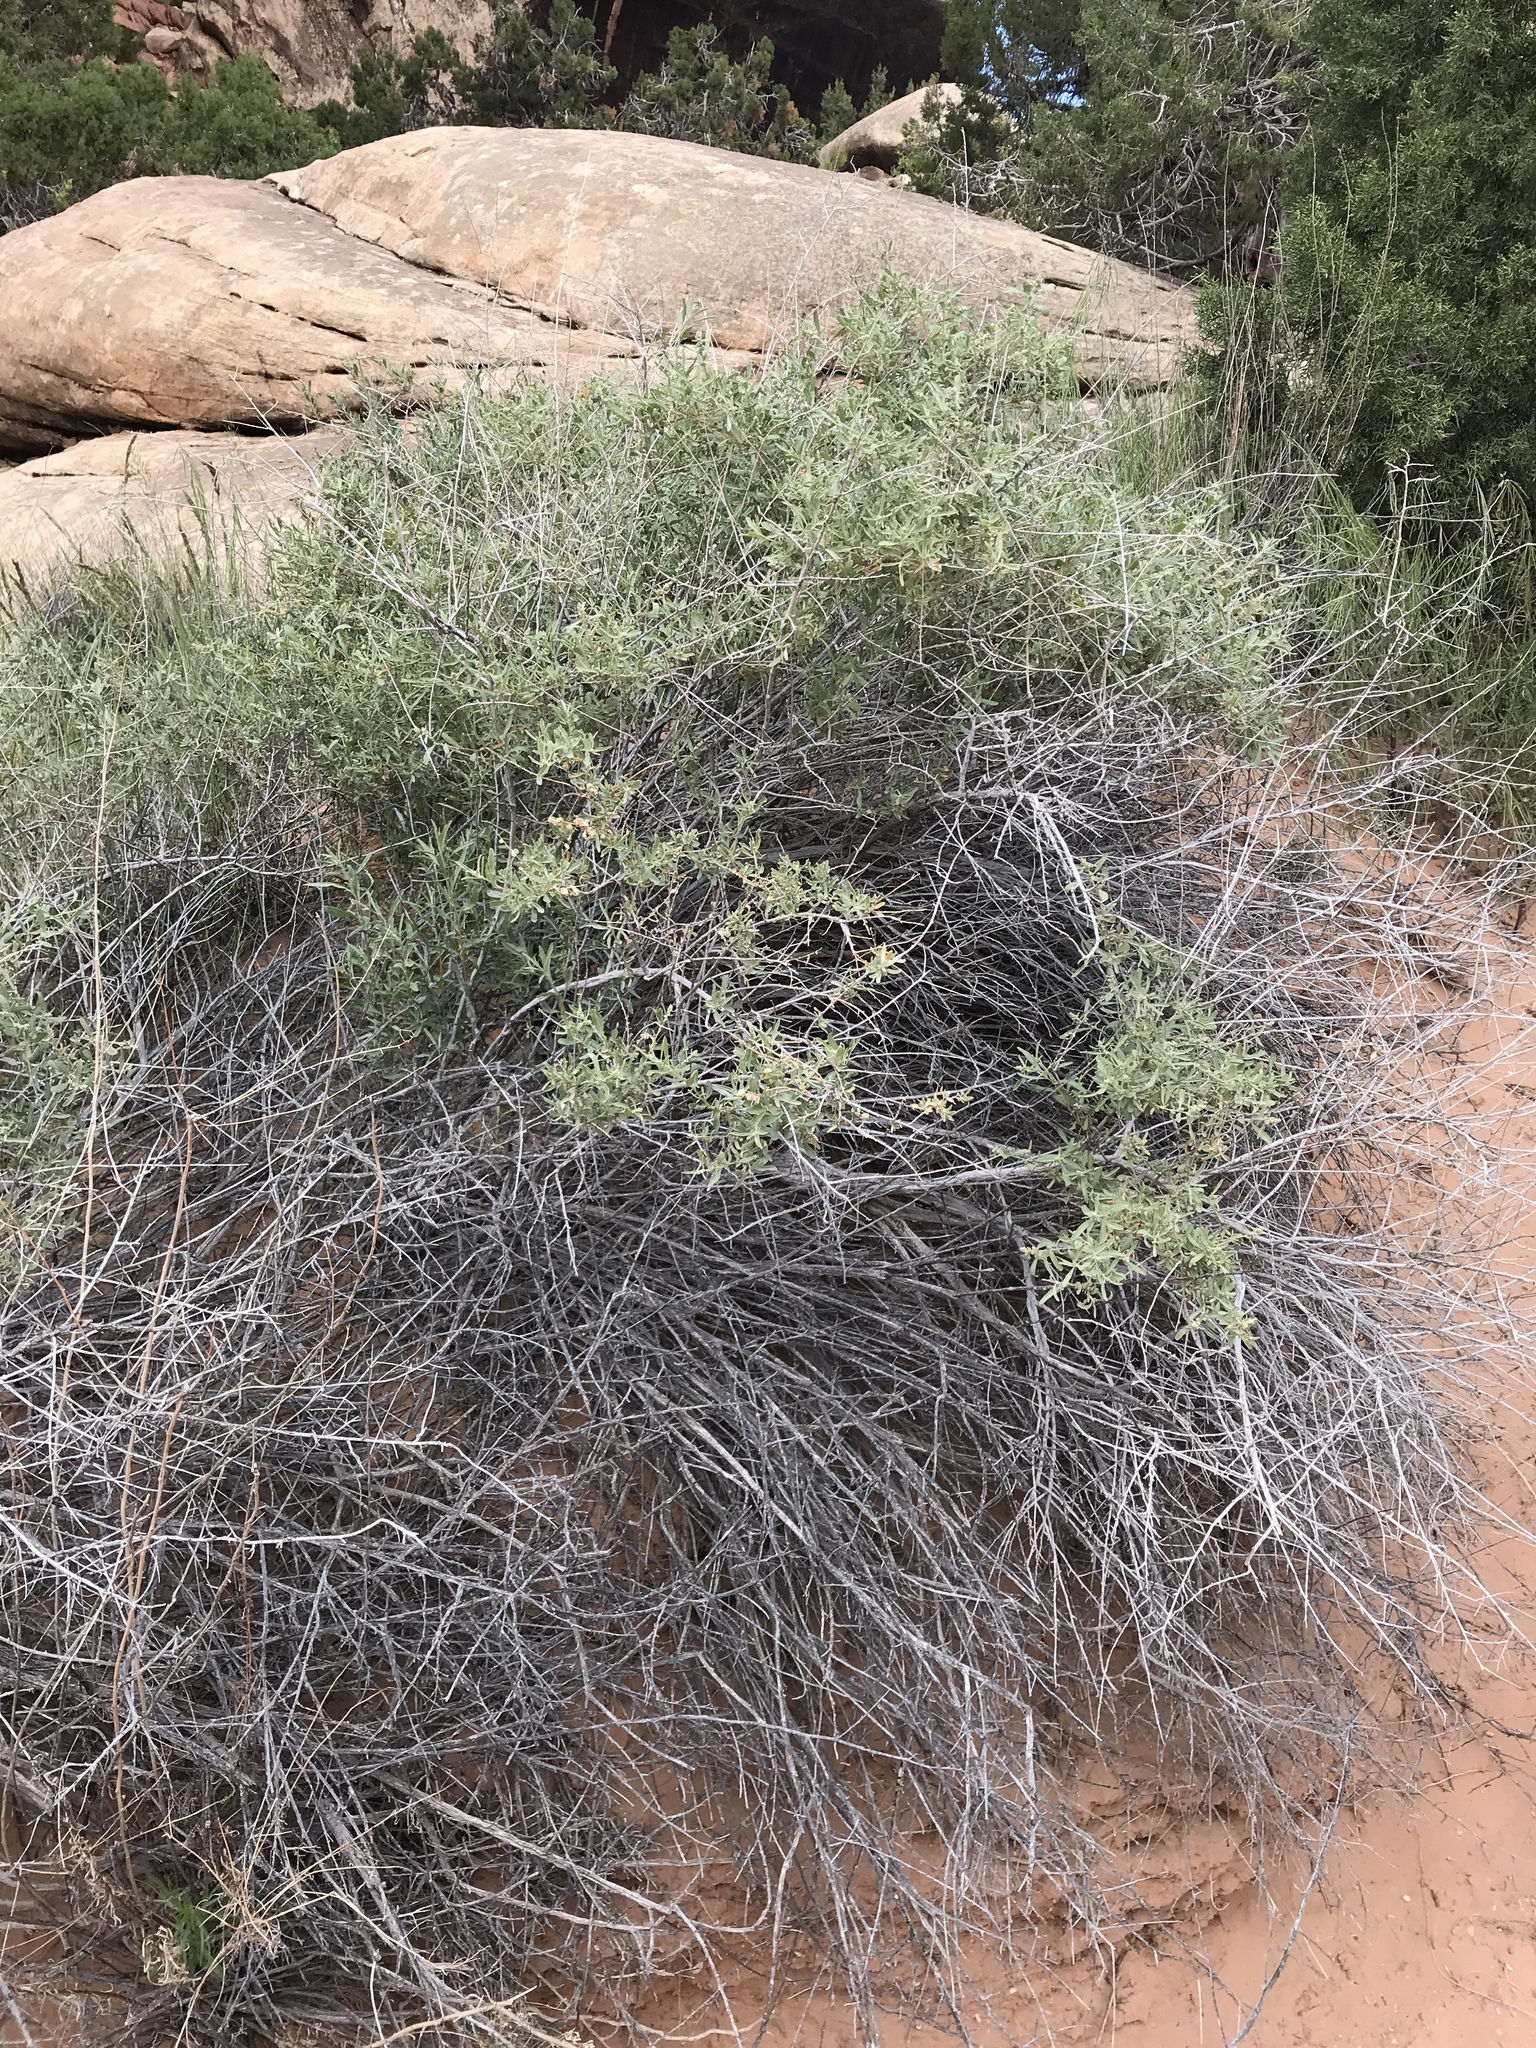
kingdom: Plantae
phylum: Tracheophyta
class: Magnoliopsida
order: Caryophyllales
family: Amaranthaceae
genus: Atriplex
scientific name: Atriplex canescens
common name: Four-wing saltbush
